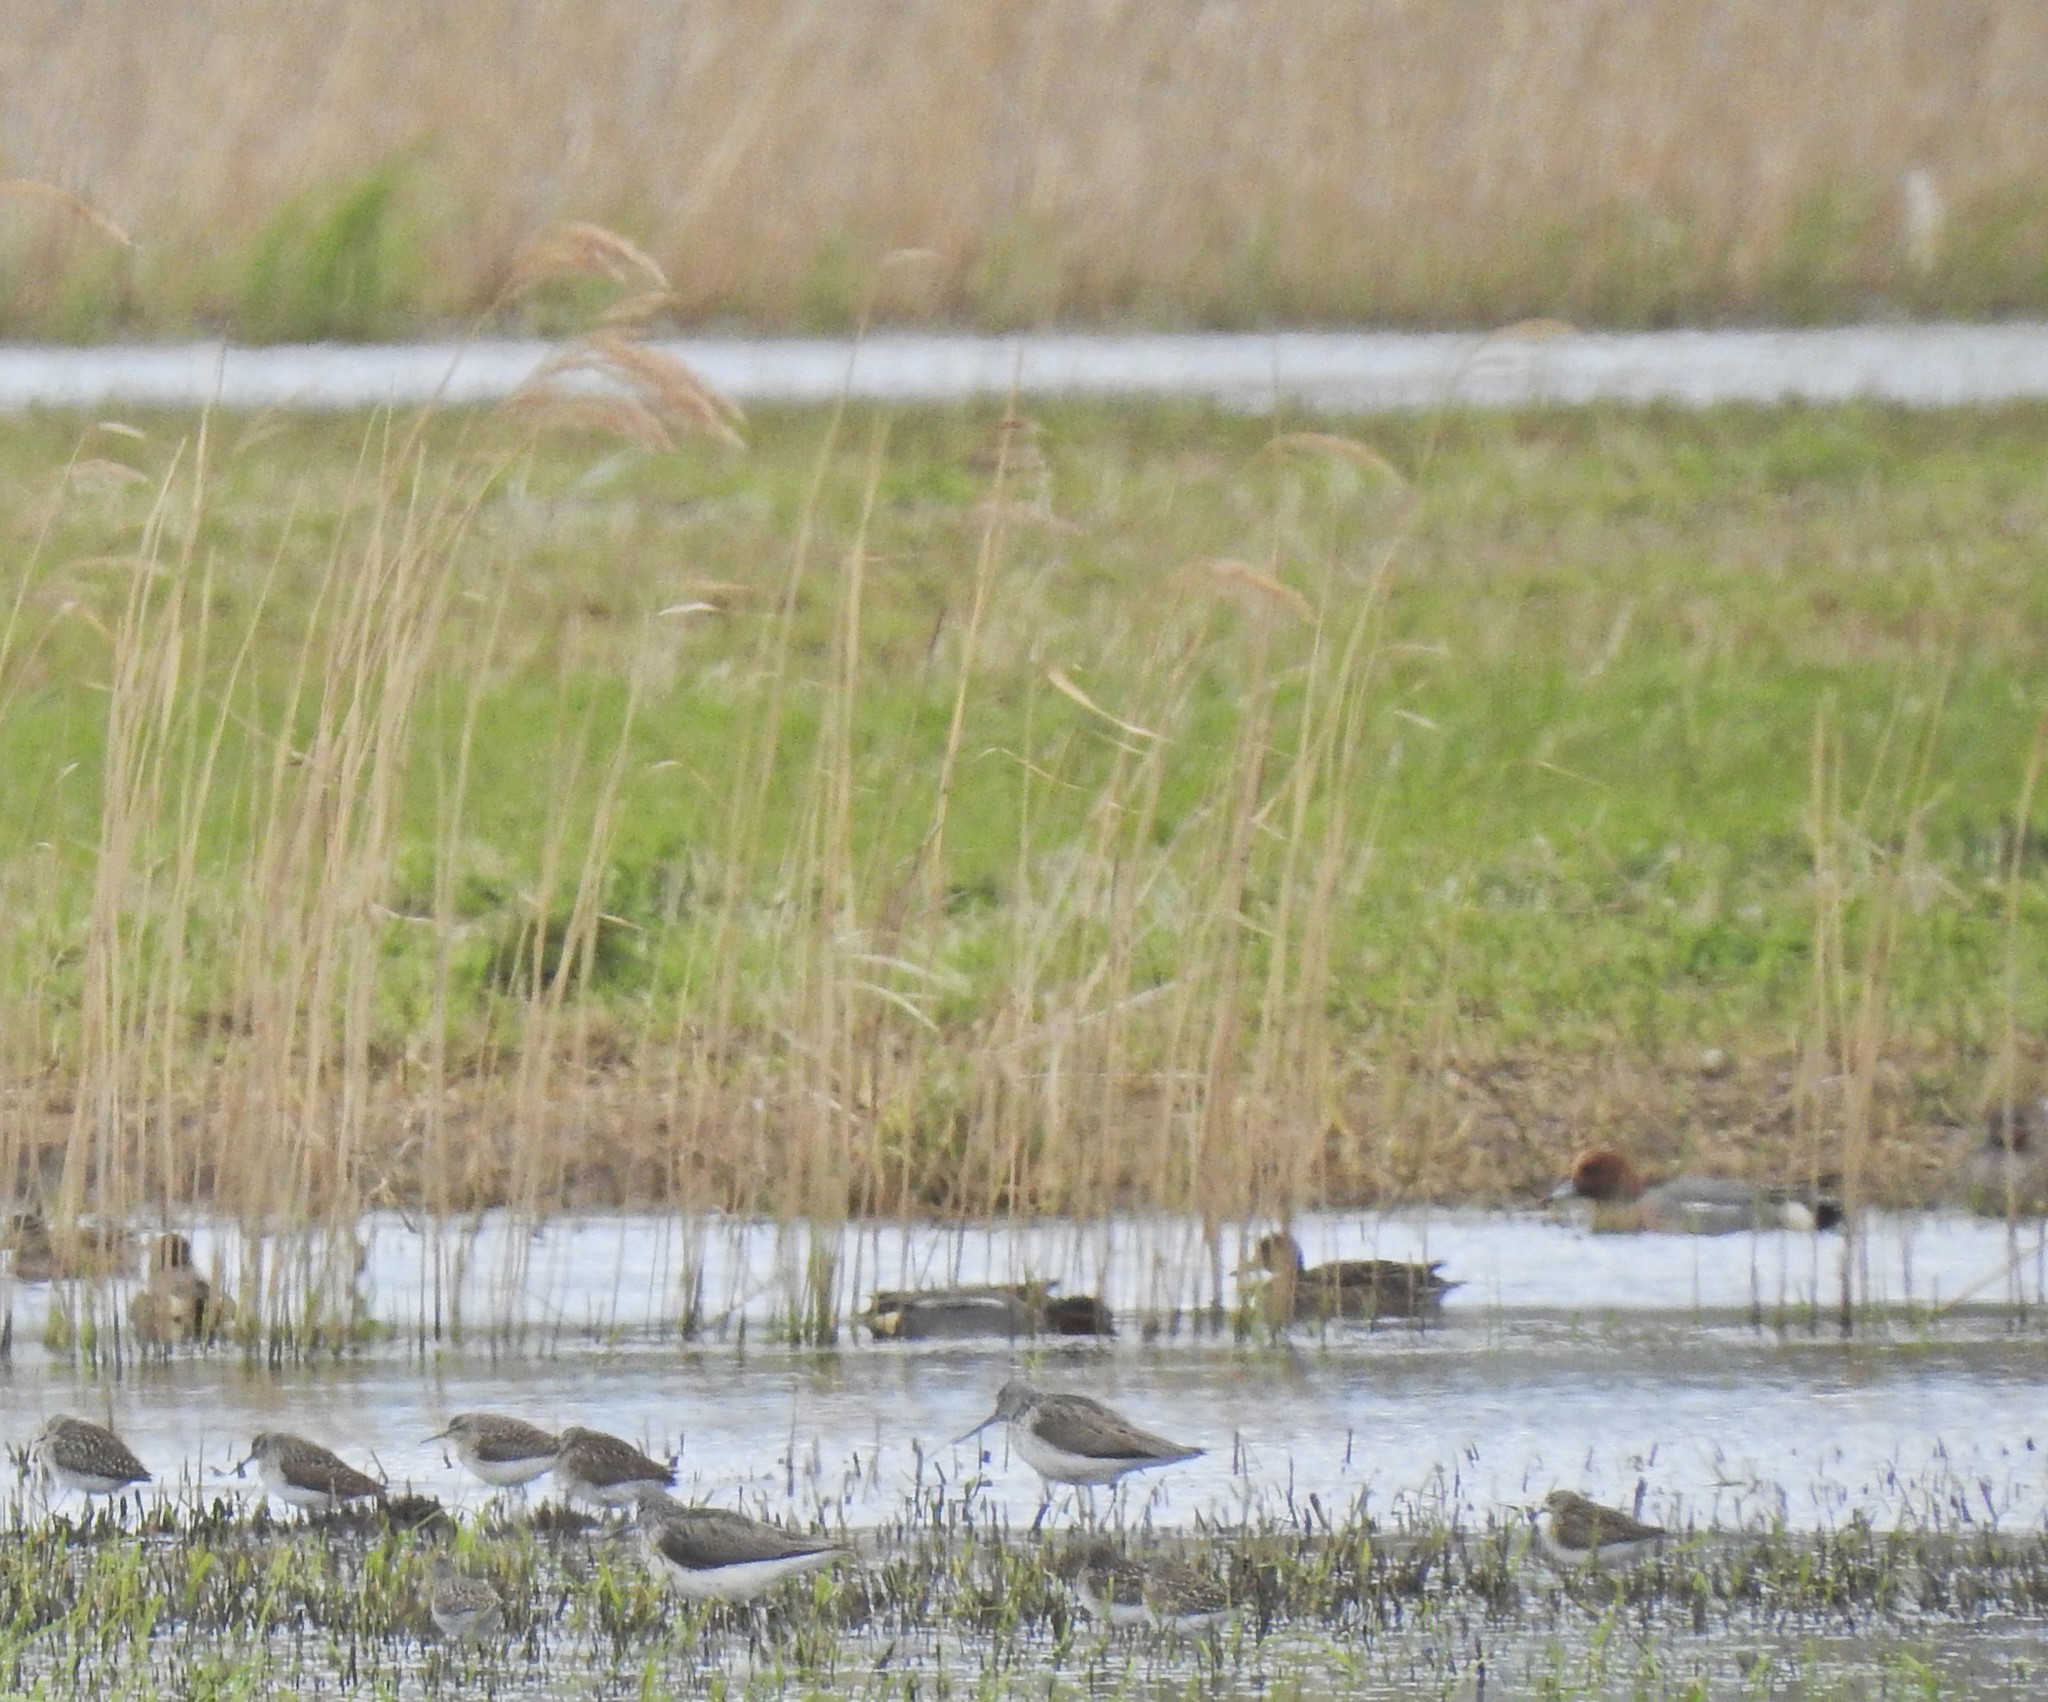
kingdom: Animalia
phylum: Chordata
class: Aves
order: Anseriformes
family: Anatidae
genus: Mareca
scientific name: Mareca penelope
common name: Eurasian wigeon
